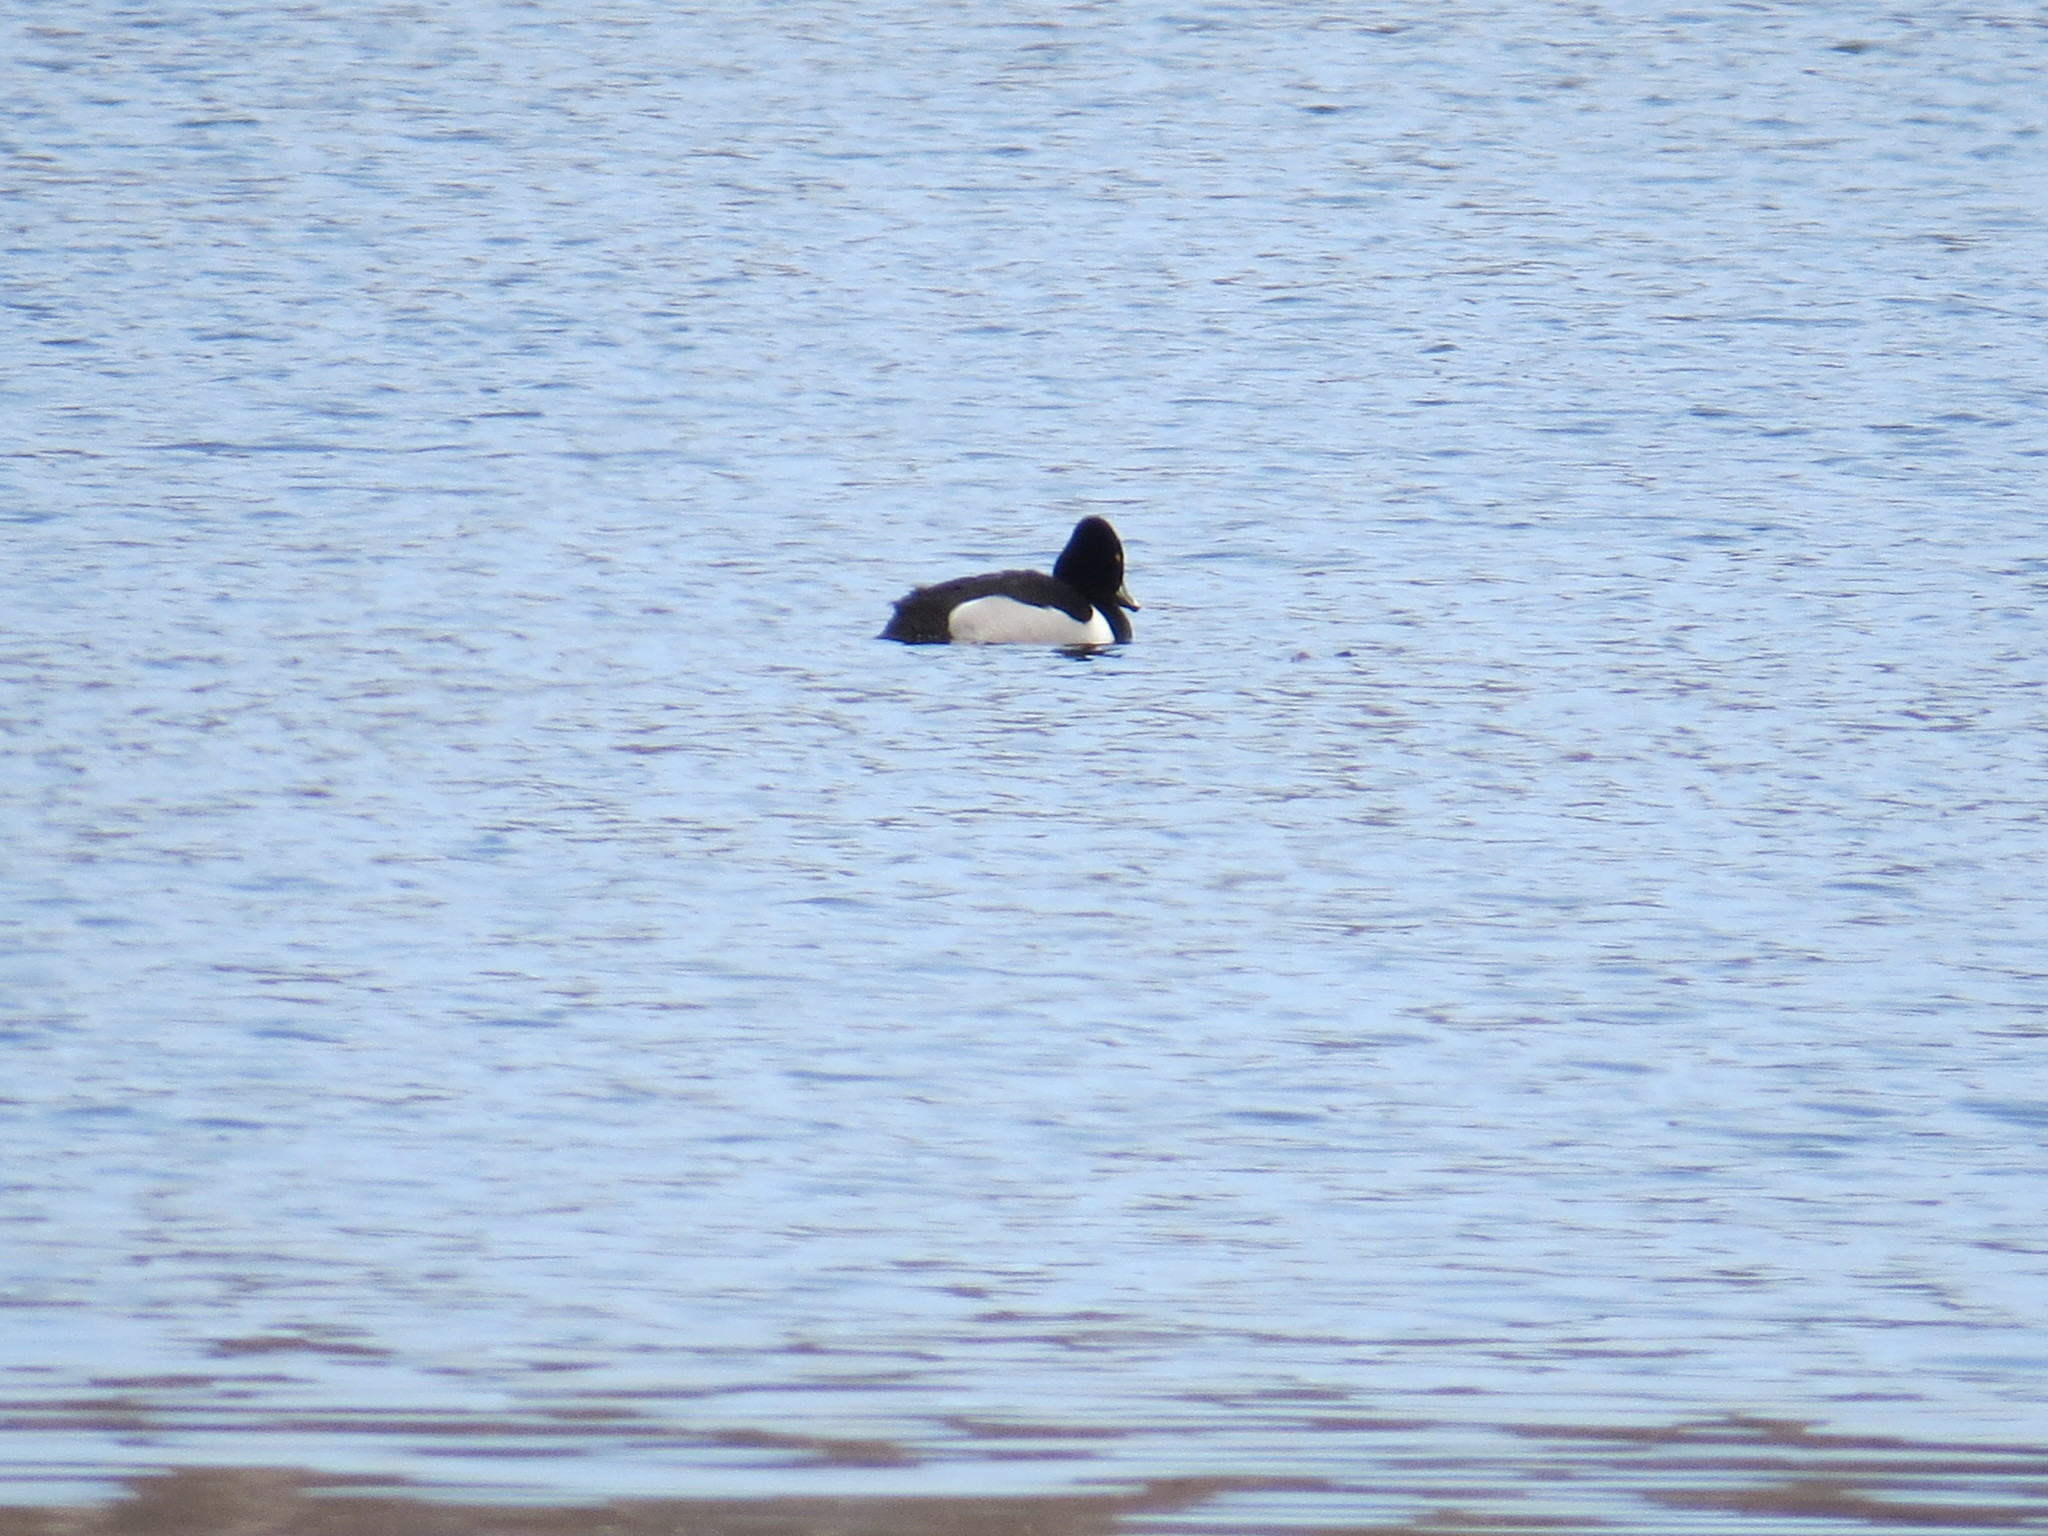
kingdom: Animalia
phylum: Chordata
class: Aves
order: Anseriformes
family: Anatidae
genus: Aythya
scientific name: Aythya collaris
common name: Ring-necked duck
